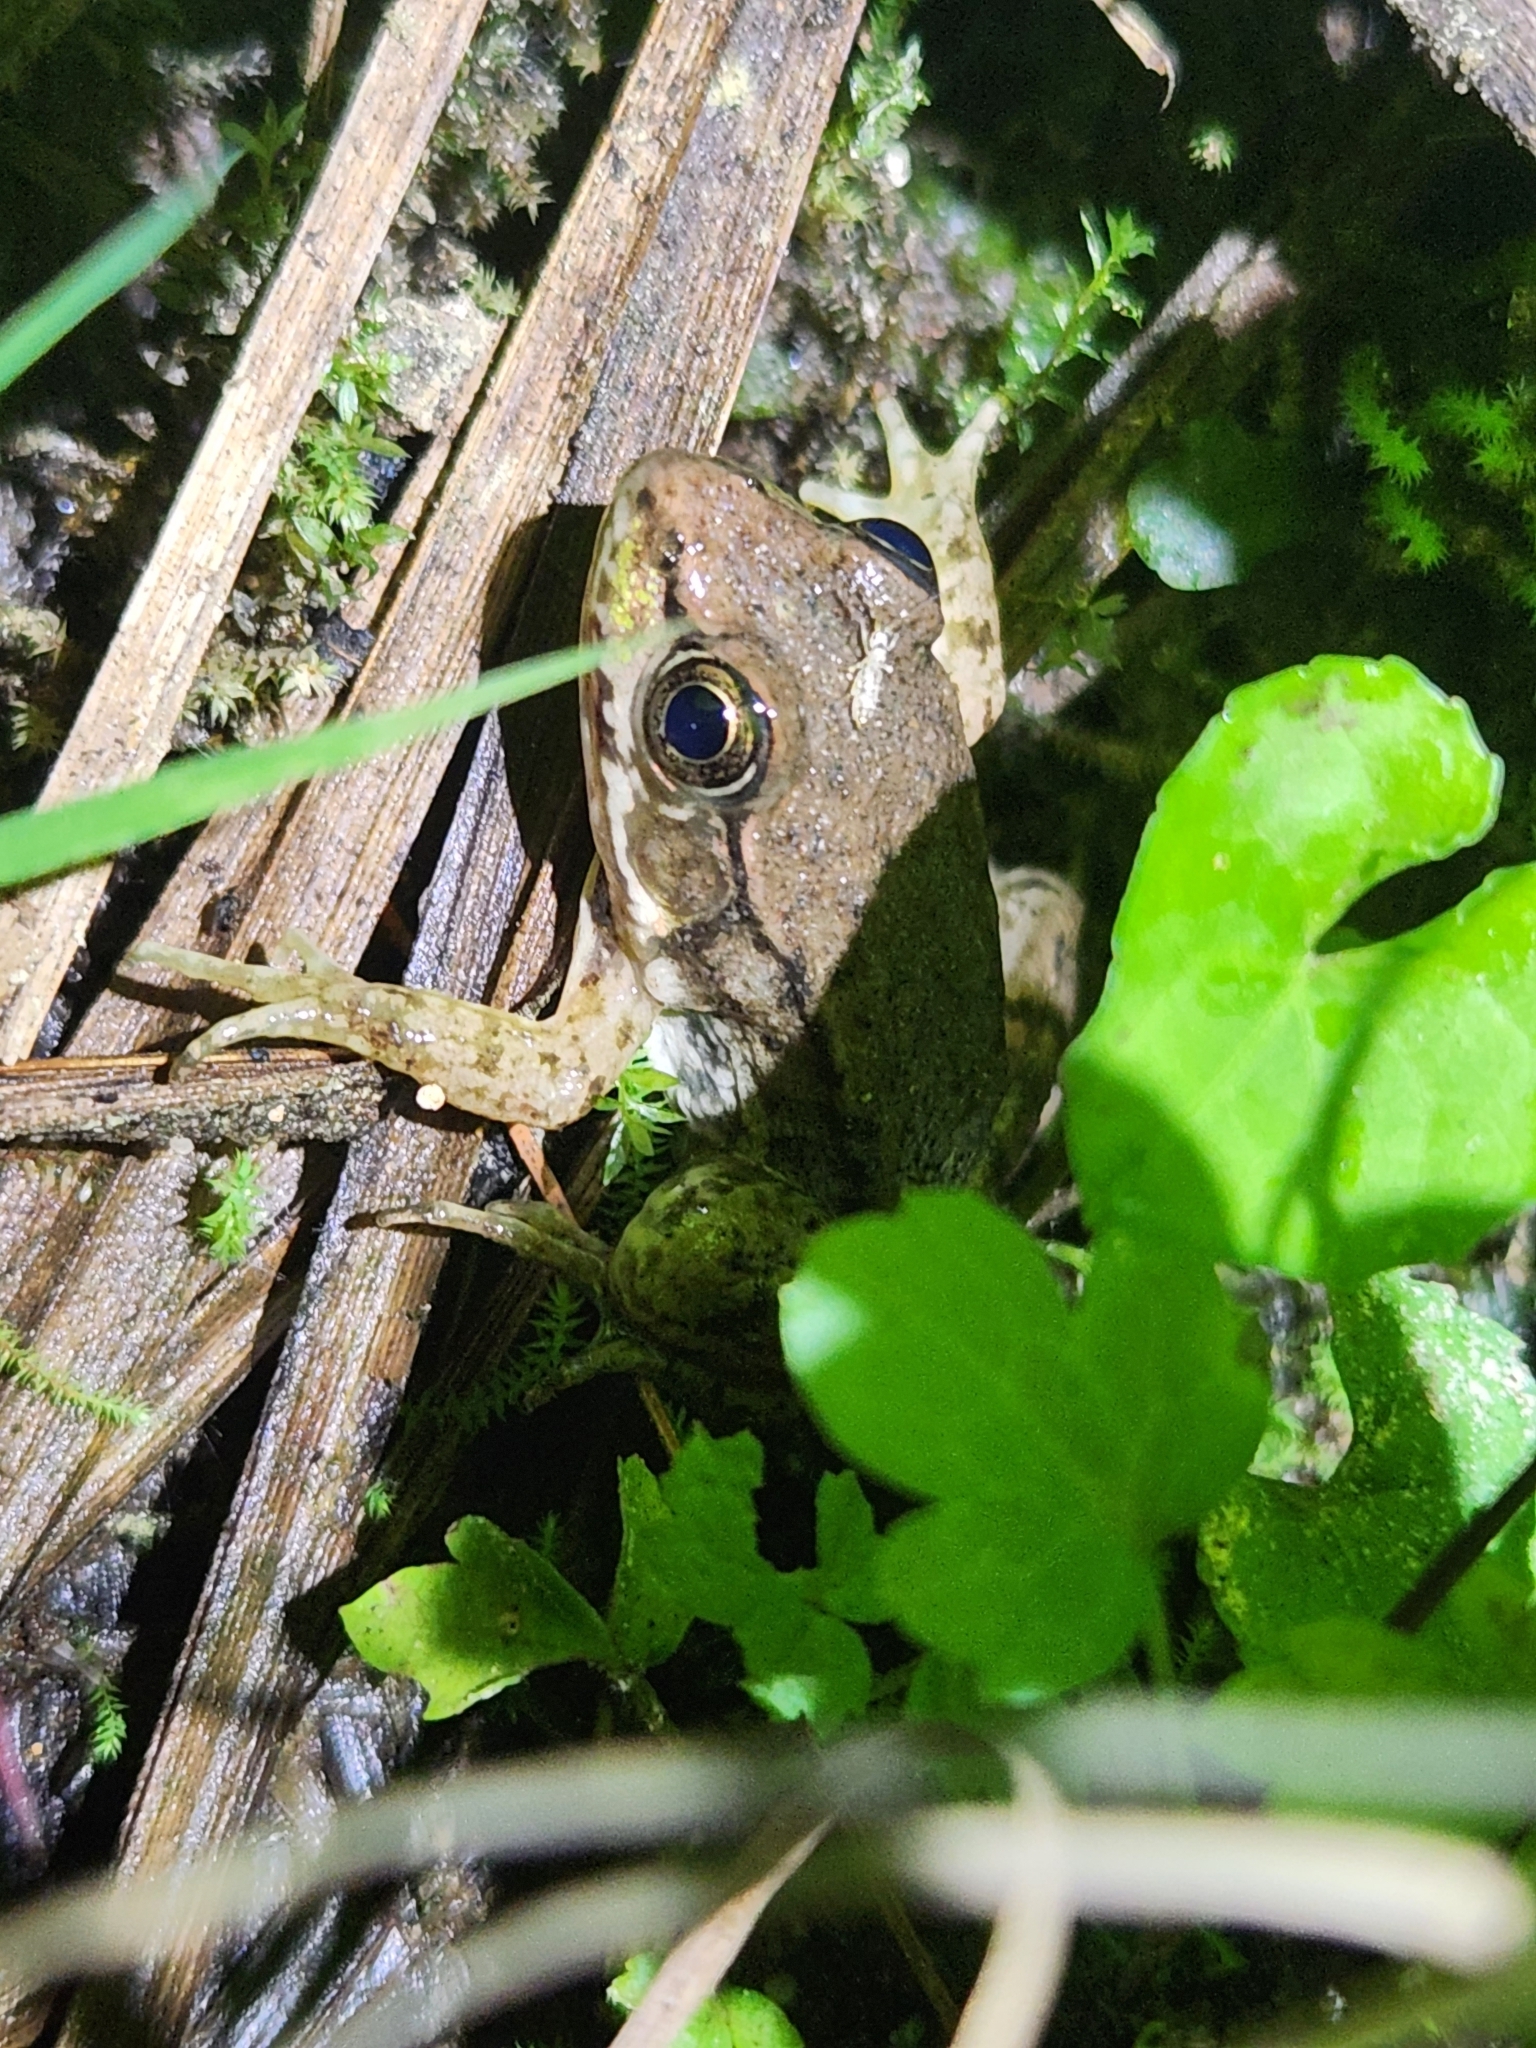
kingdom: Animalia
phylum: Chordata
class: Amphibia
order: Anura
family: Ranidae
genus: Lithobates
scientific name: Lithobates clamitans
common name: Green frog
